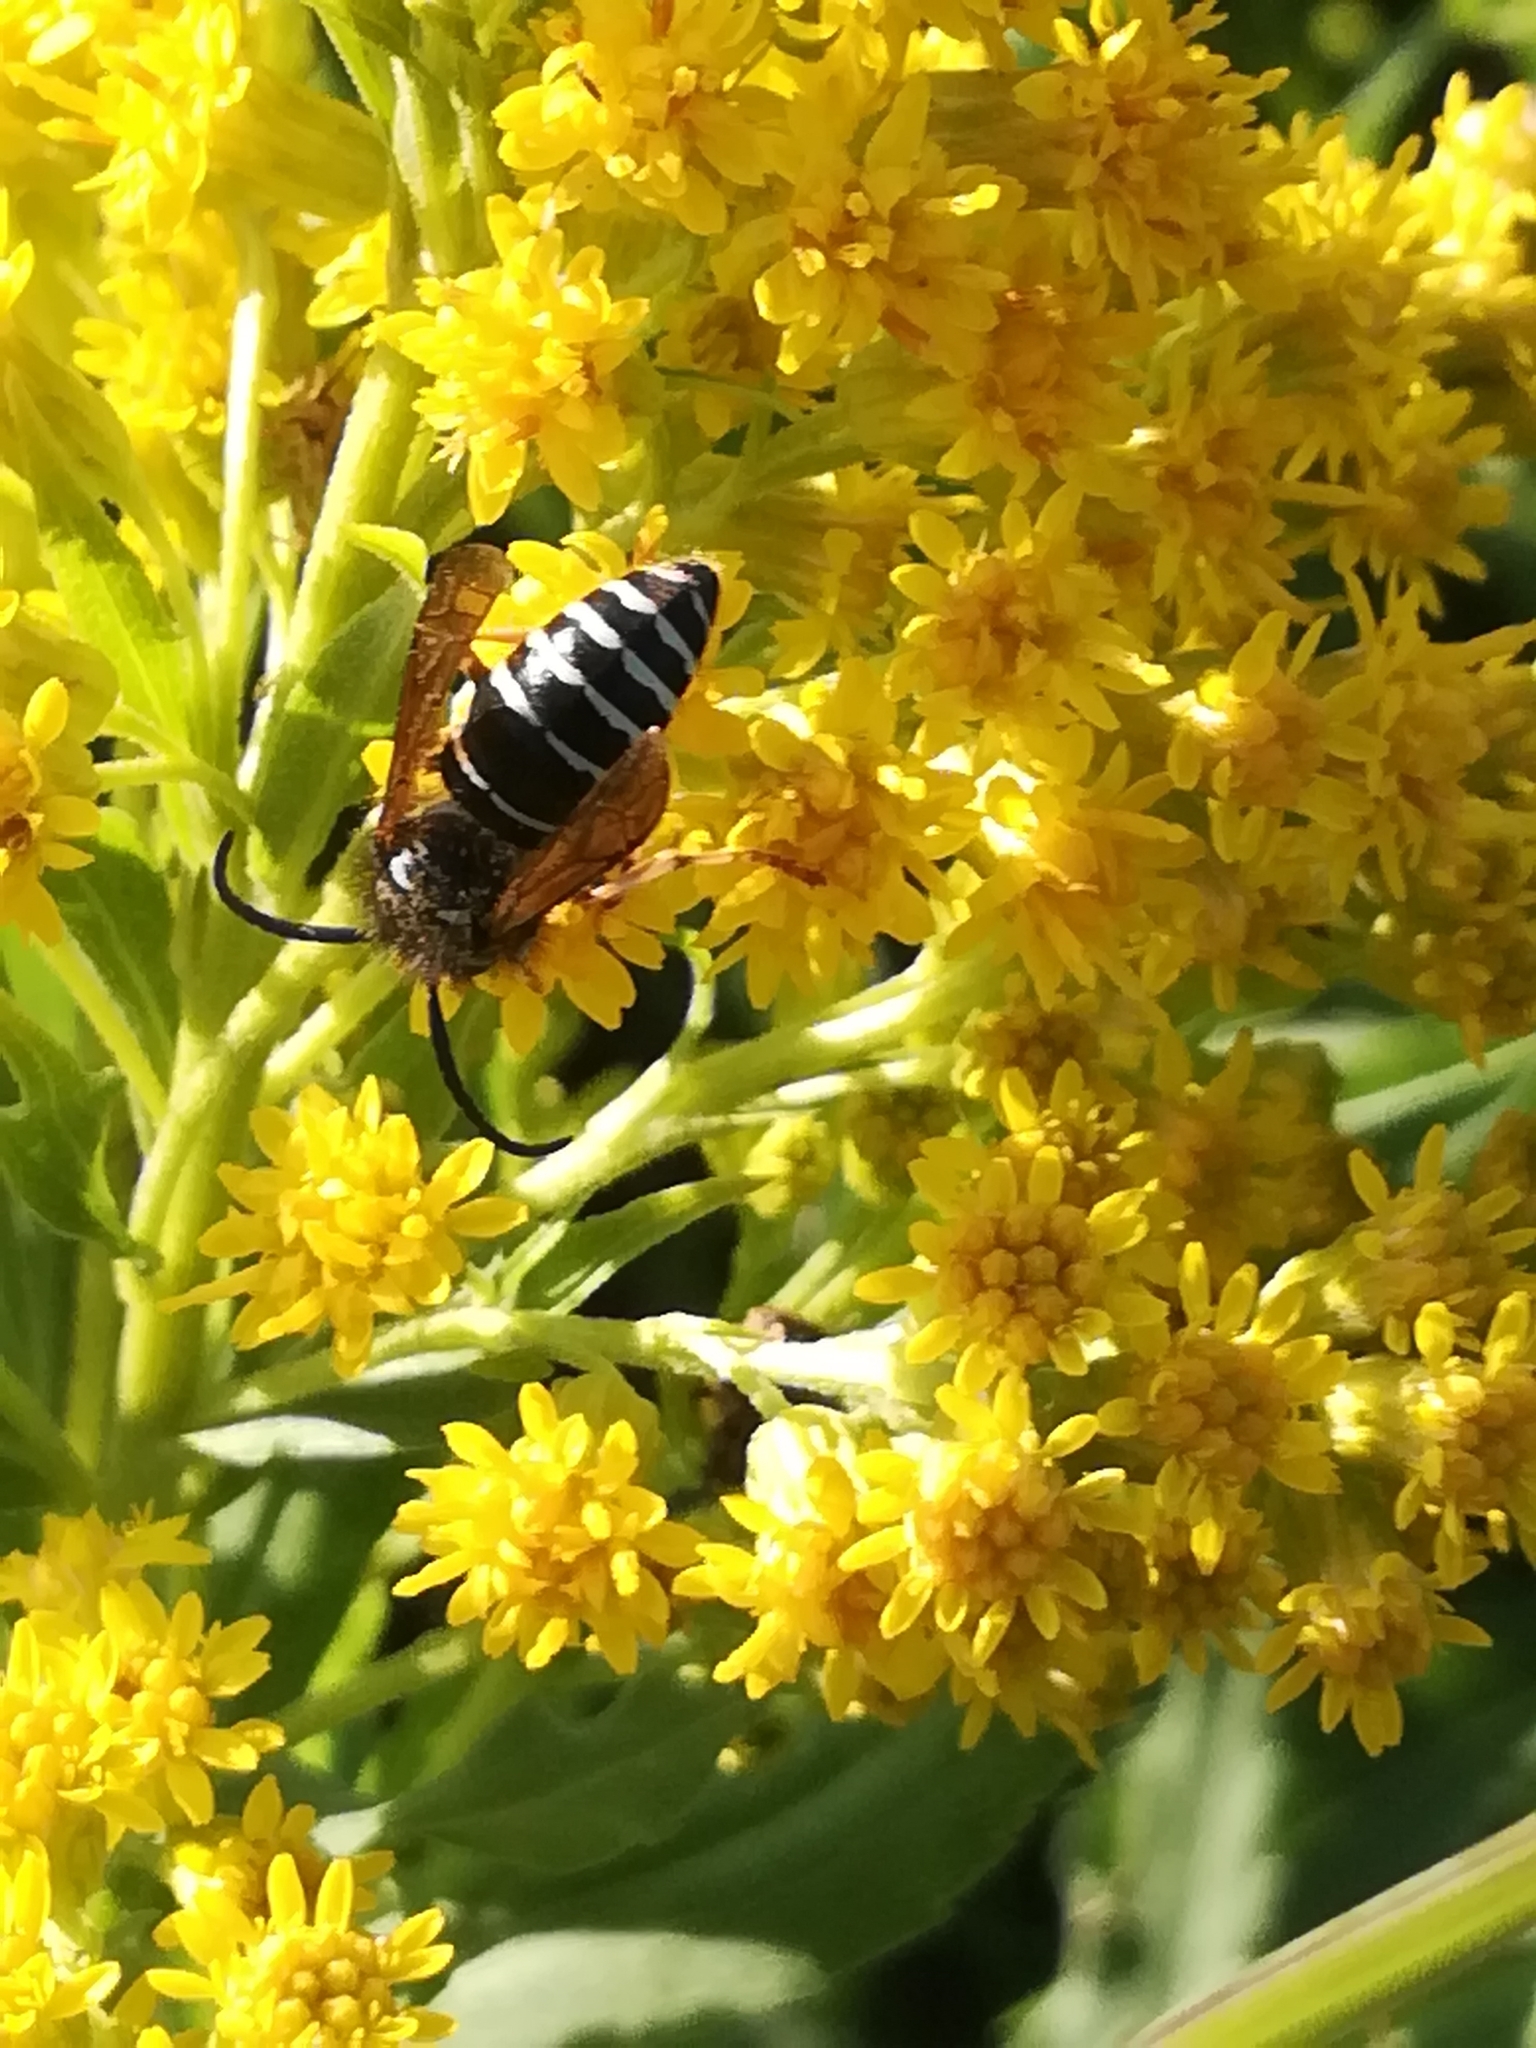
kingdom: Animalia
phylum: Arthropoda
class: Insecta
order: Hymenoptera
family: Vespidae
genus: Dolichovespula
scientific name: Dolichovespula adulterina
